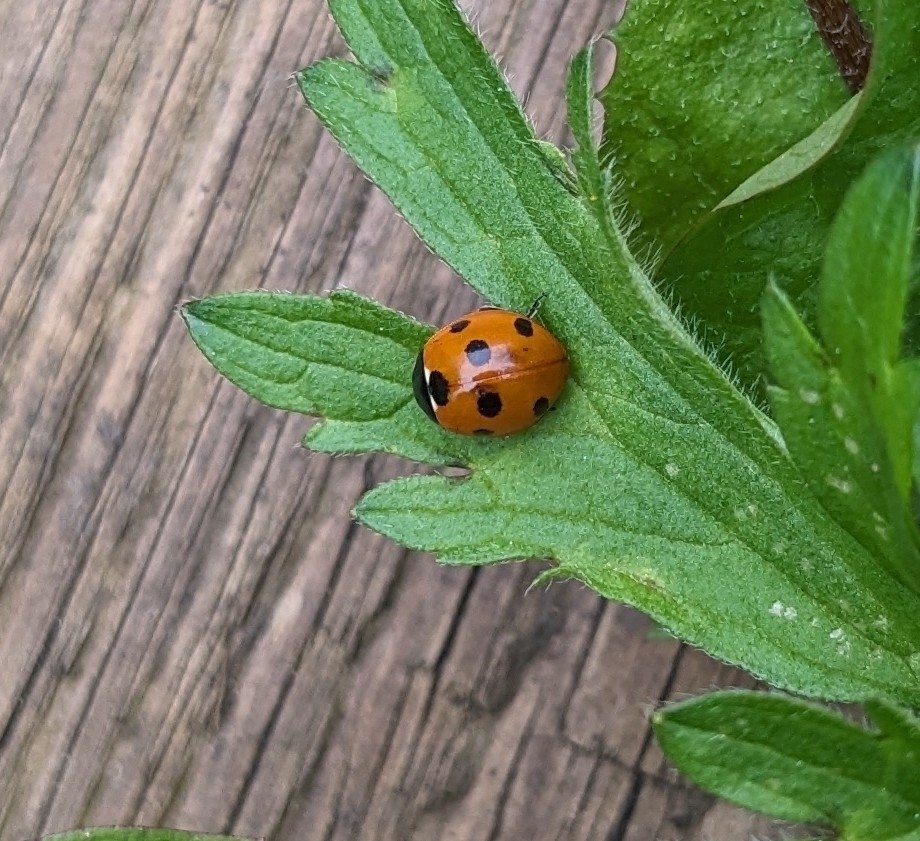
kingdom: Animalia
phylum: Arthropoda
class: Insecta
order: Coleoptera
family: Coccinellidae
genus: Coccinella
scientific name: Coccinella septempunctata
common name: Sevenspotted lady beetle
